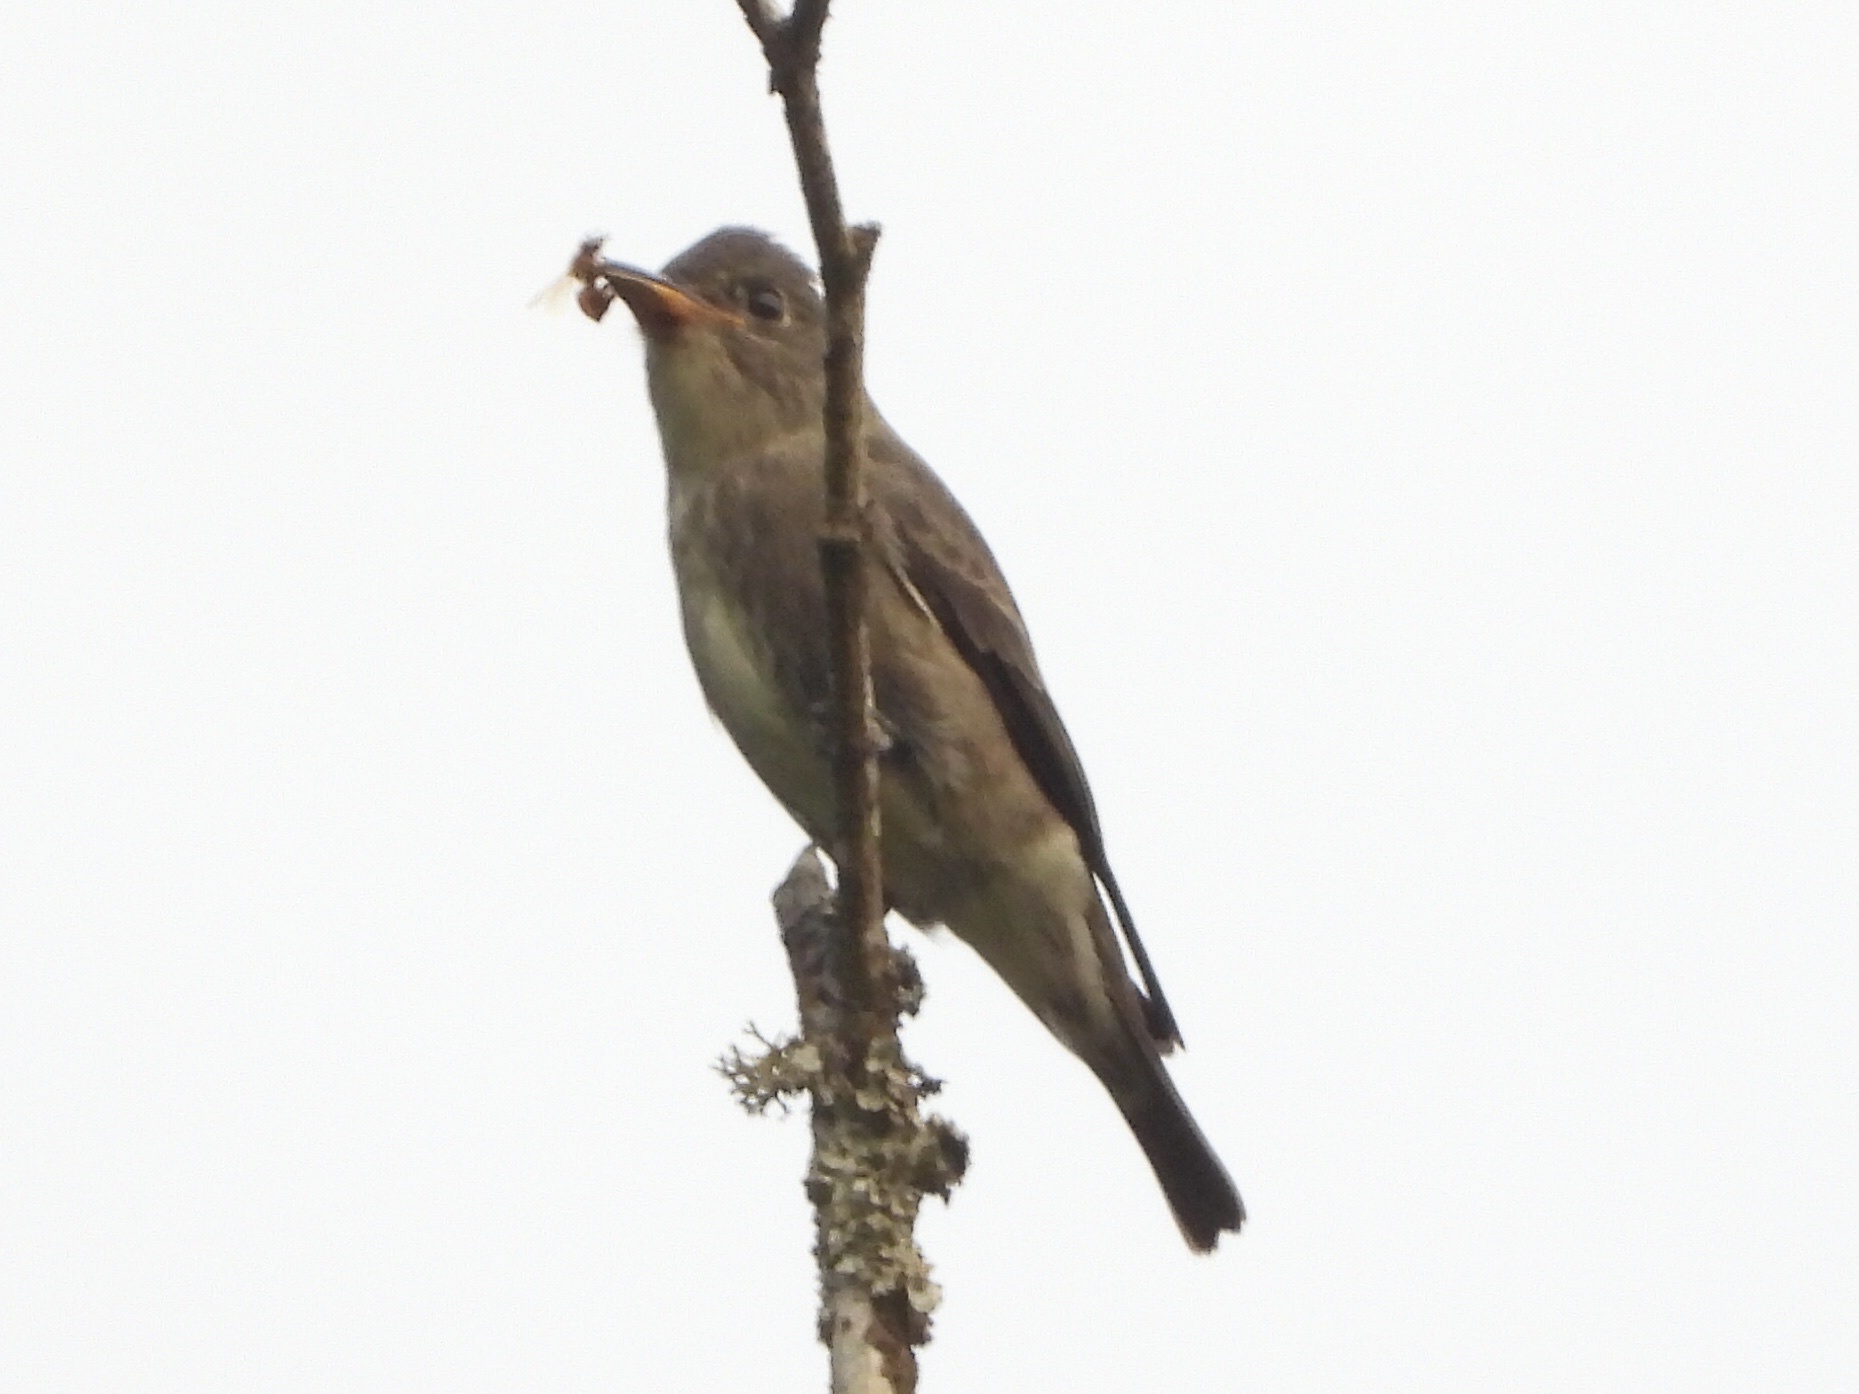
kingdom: Animalia
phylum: Chordata
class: Aves
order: Passeriformes
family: Tyrannidae
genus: Contopus
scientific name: Contopus cooperi
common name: Olive-sided flycatcher
